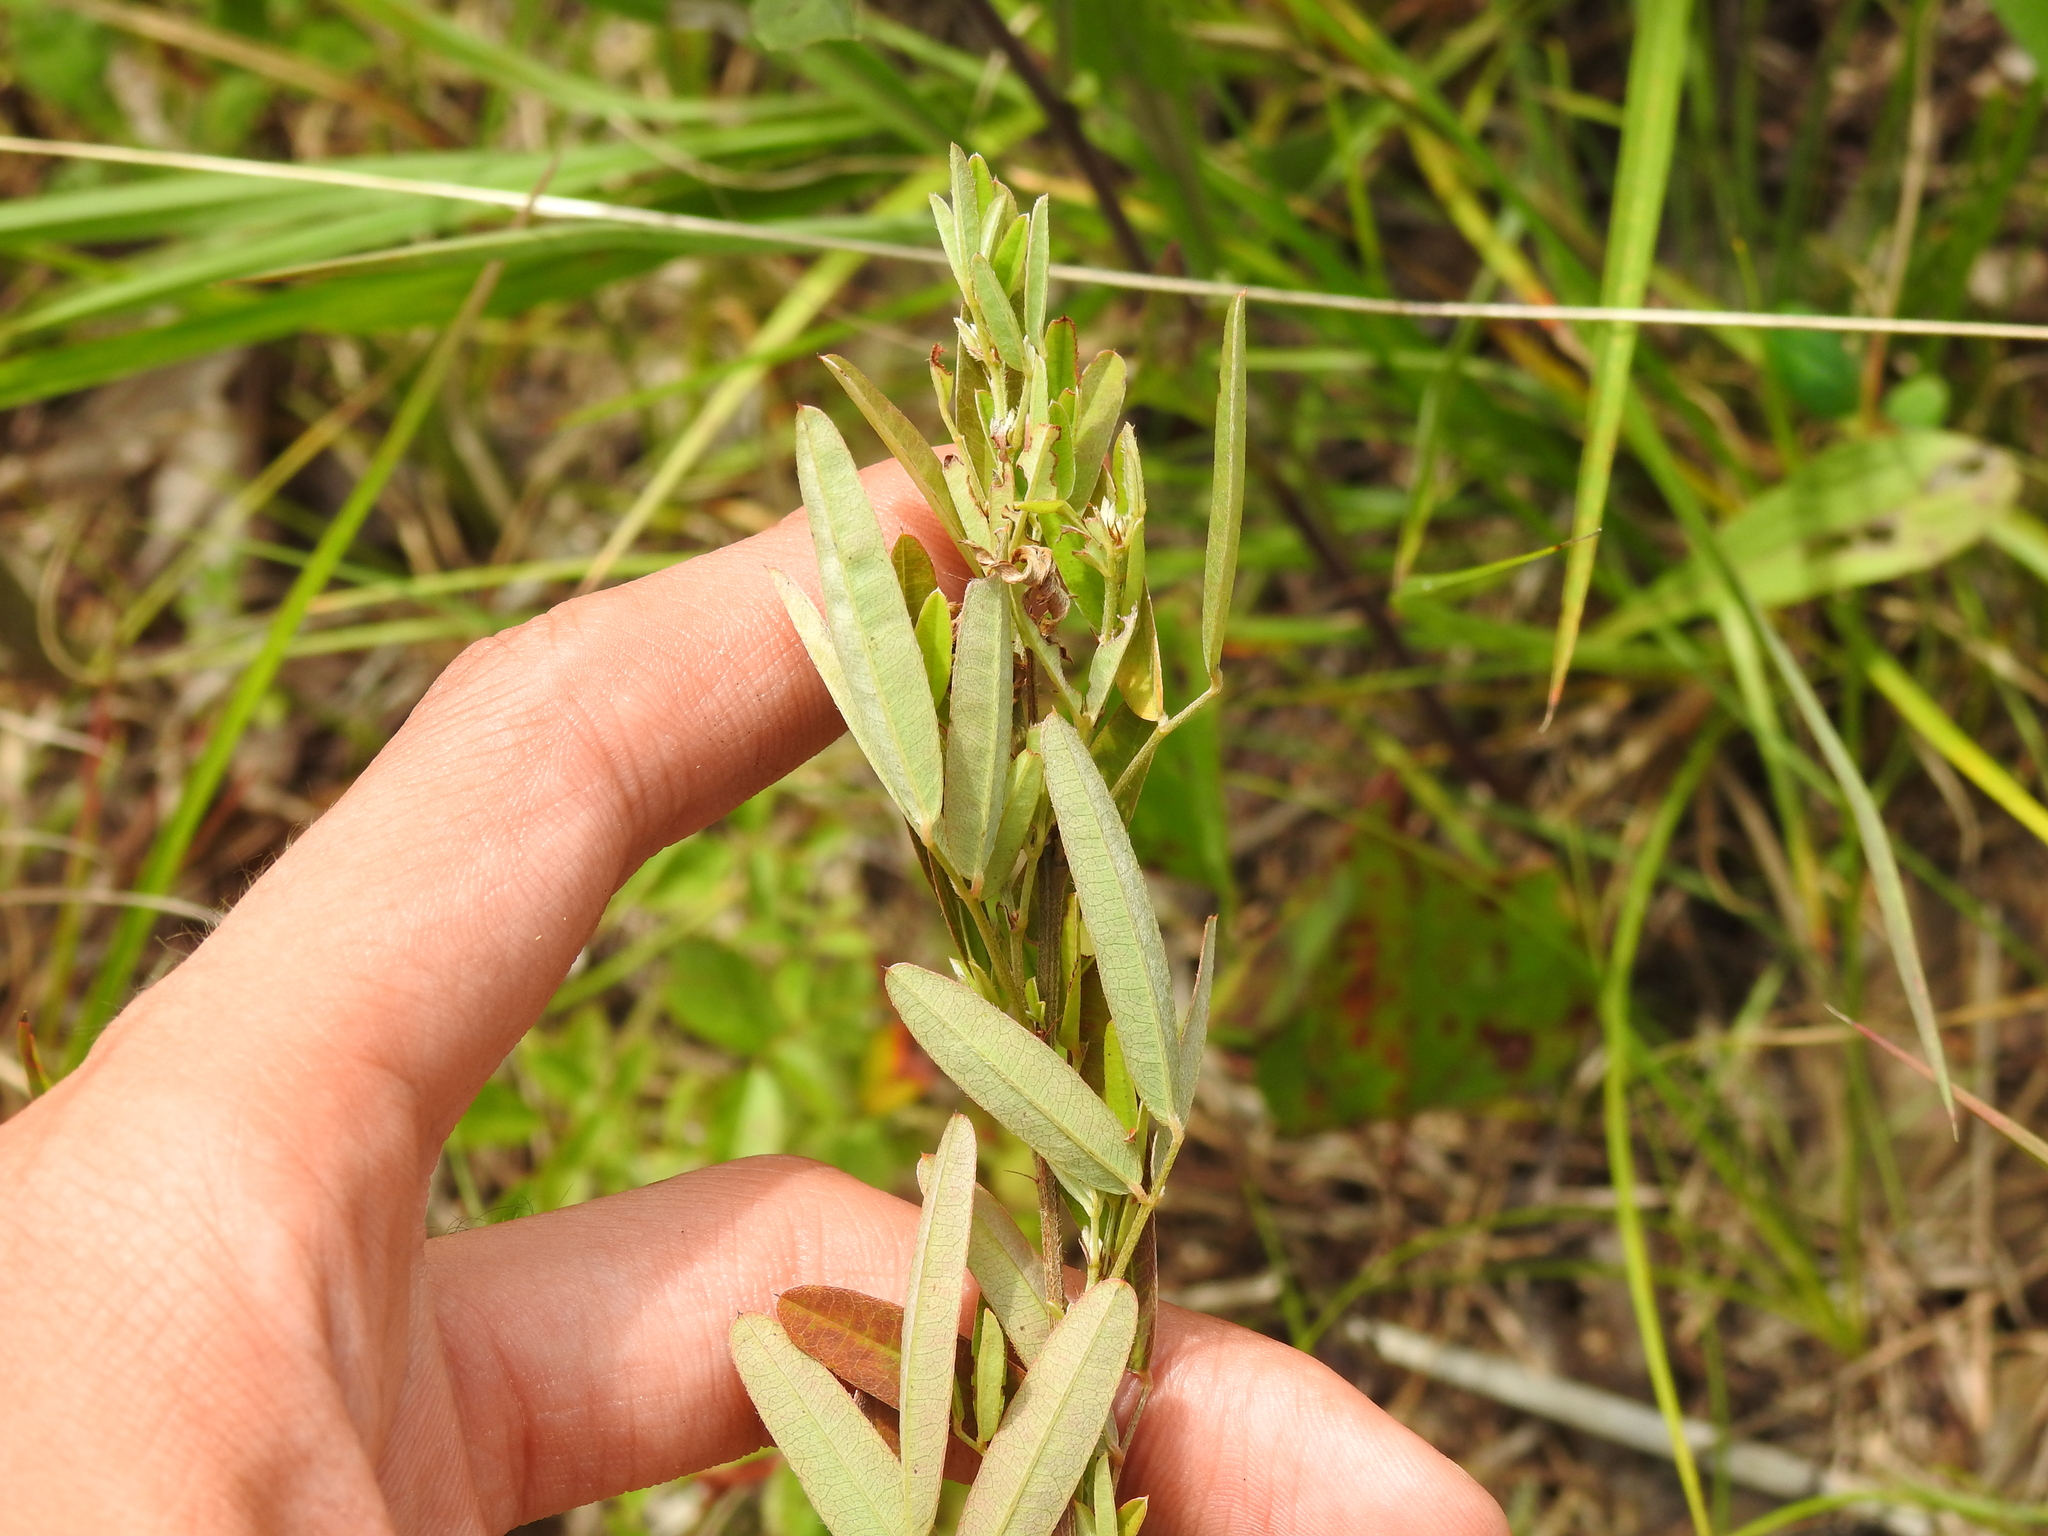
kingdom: Plantae
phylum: Tracheophyta
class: Magnoliopsida
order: Fabales
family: Fabaceae
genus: Lespedeza
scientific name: Lespedeza virginica
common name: Slender bush-clover
